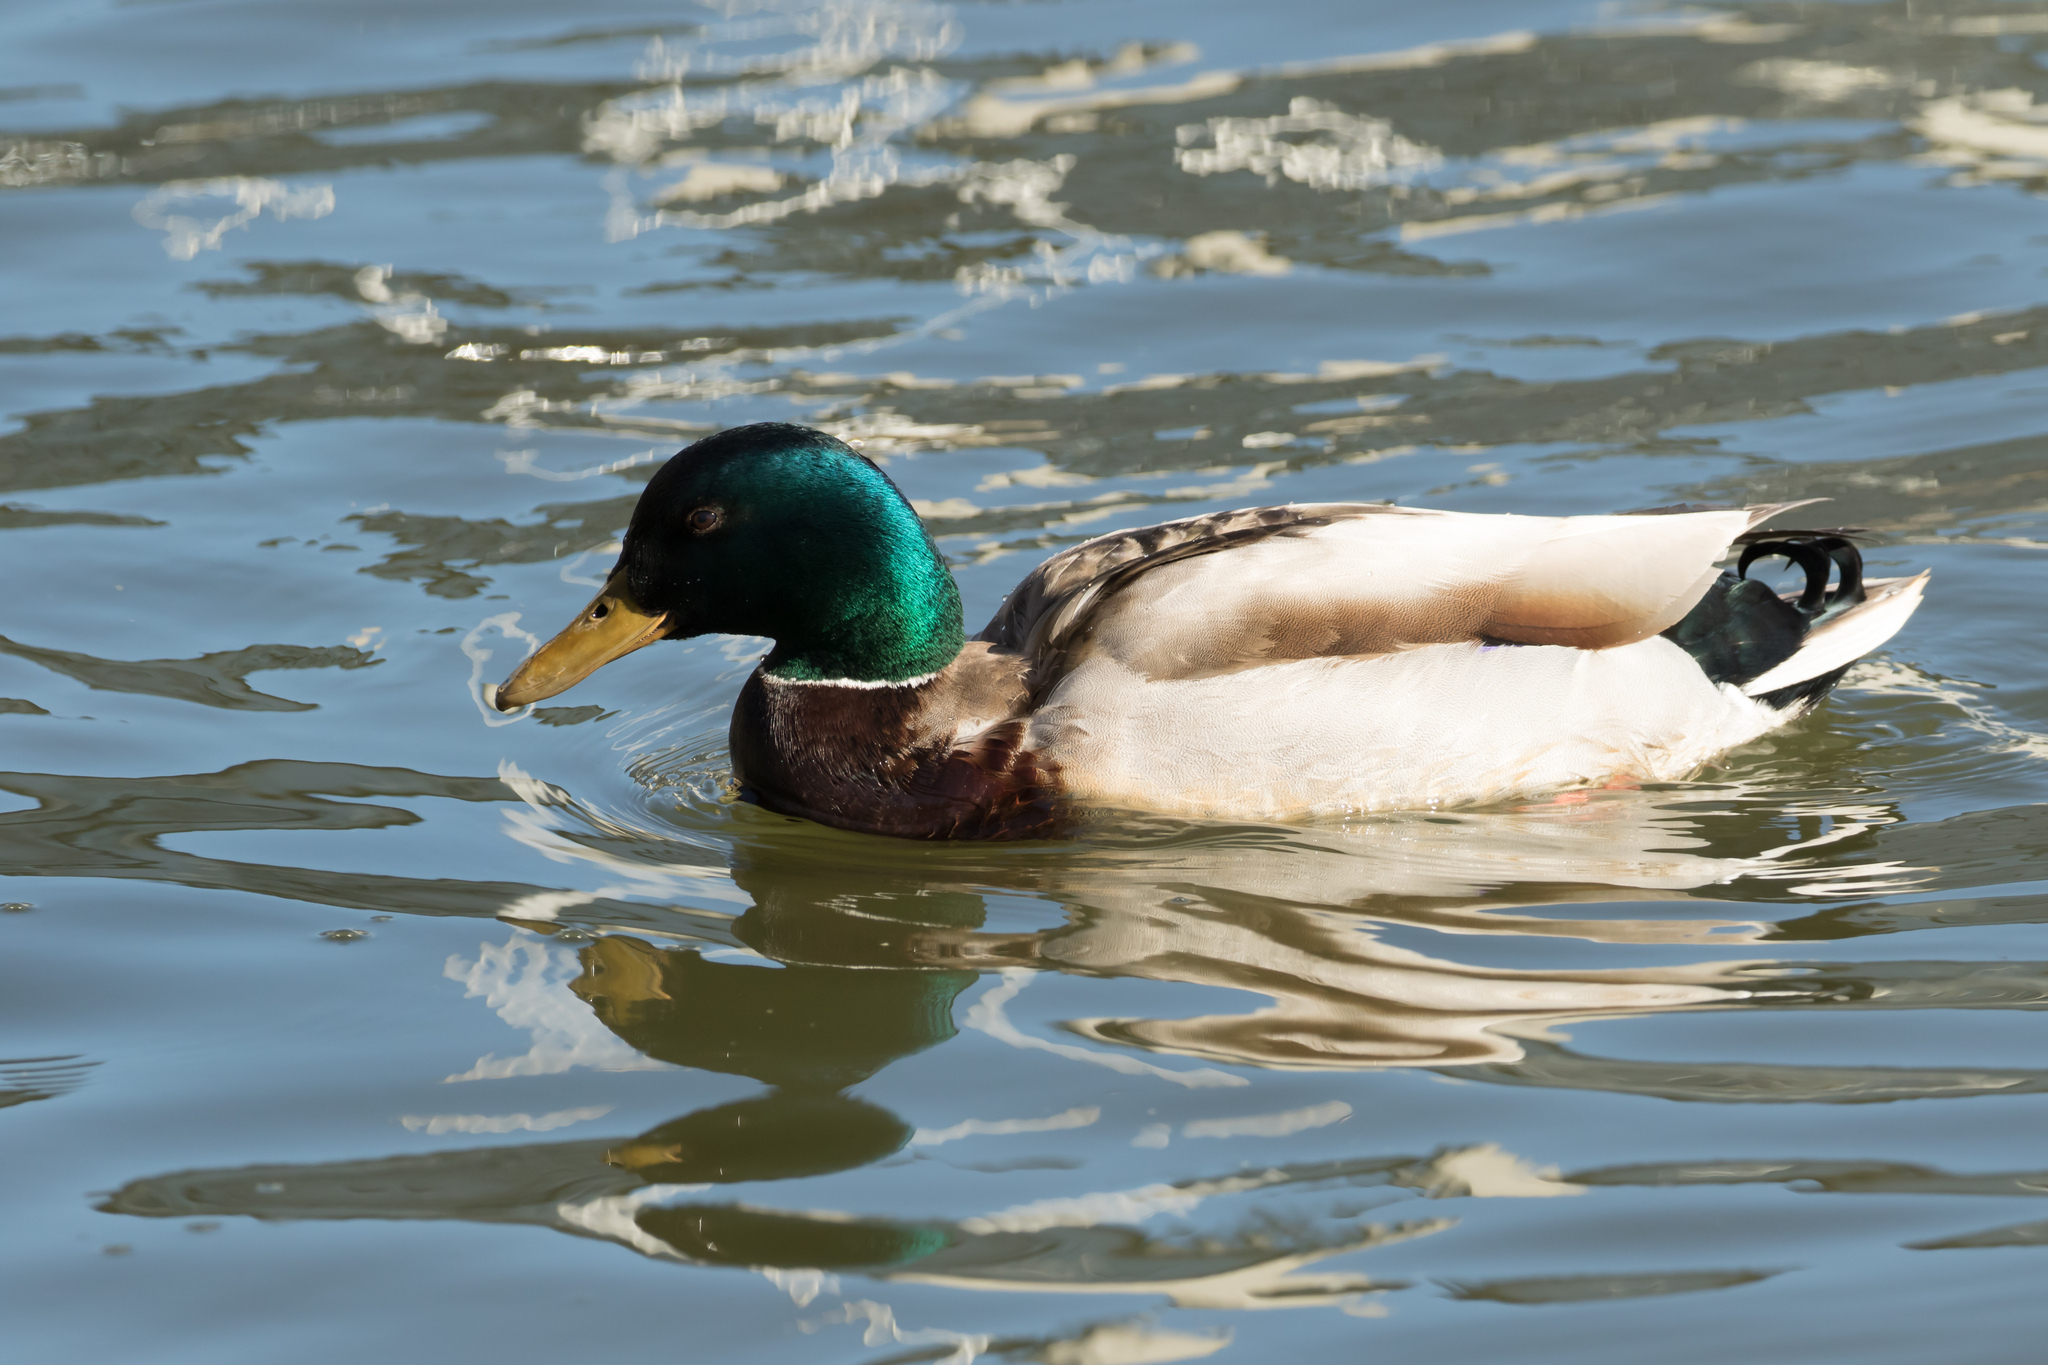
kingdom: Animalia
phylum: Chordata
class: Aves
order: Anseriformes
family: Anatidae
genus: Anas
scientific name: Anas platyrhynchos
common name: Mallard
